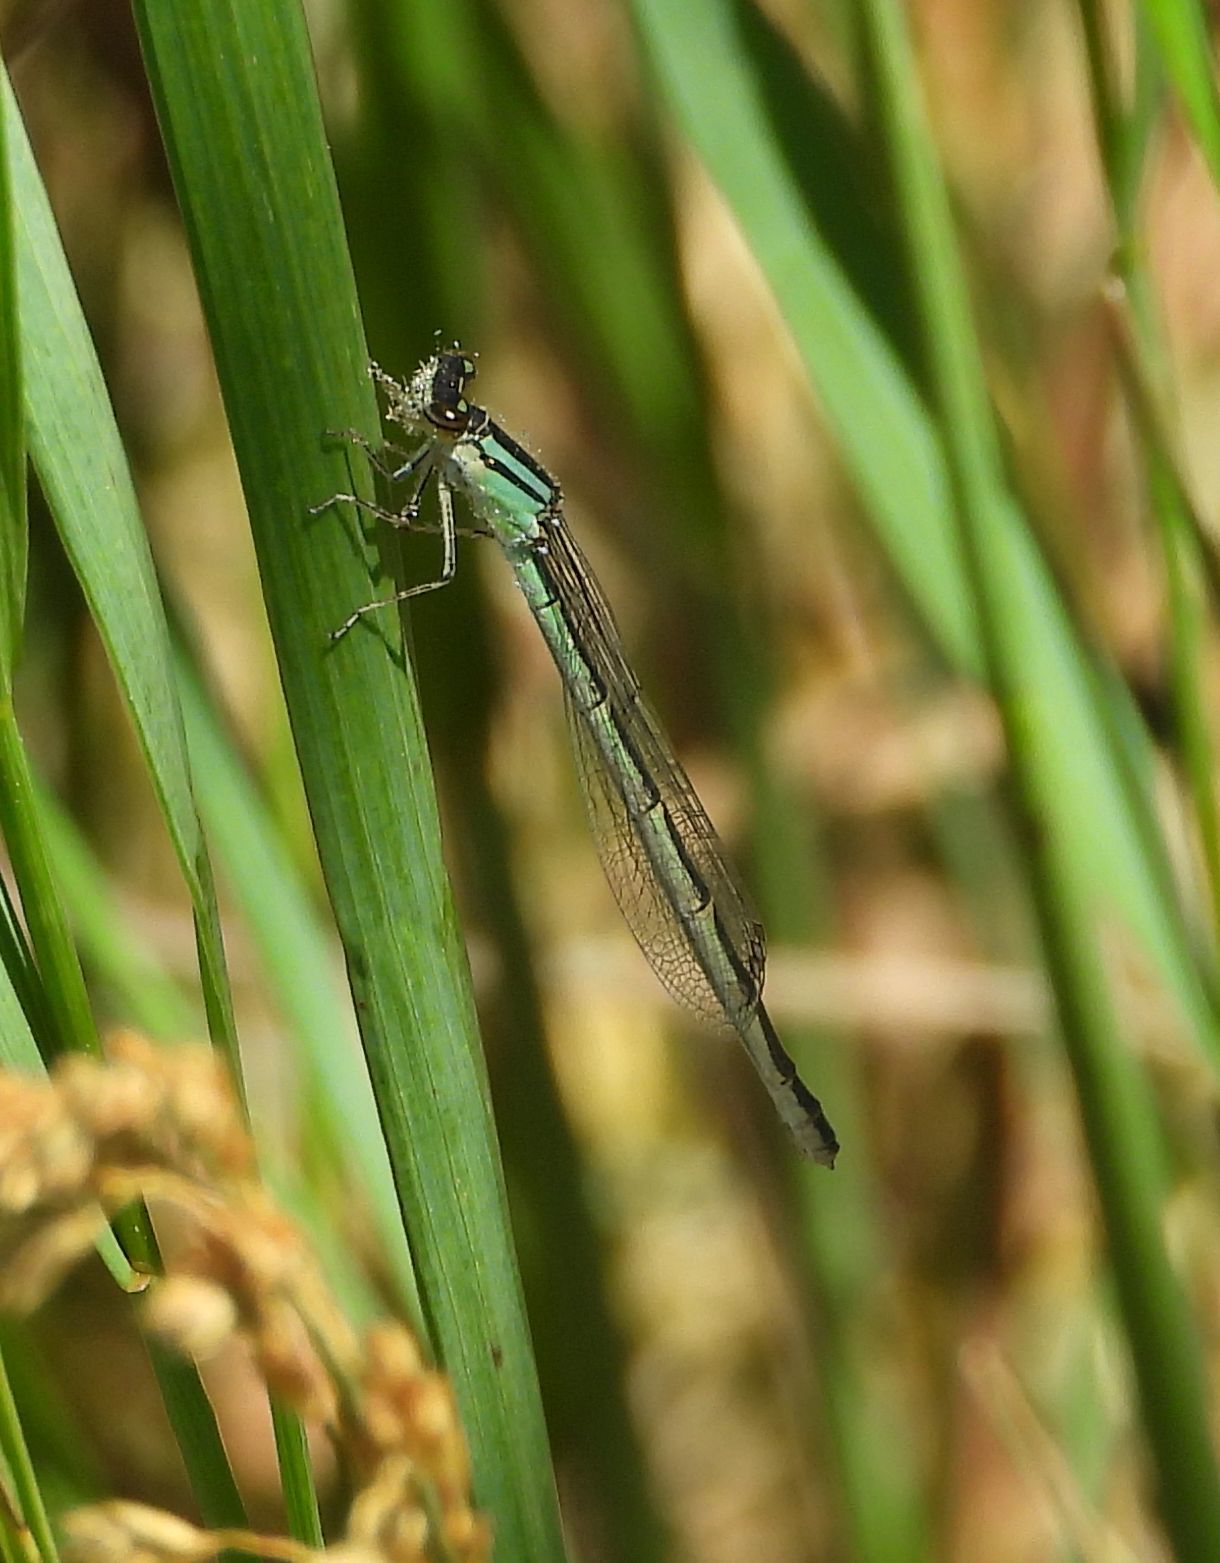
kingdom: Animalia
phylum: Arthropoda
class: Insecta
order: Odonata
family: Coenagrionidae
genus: Ischnura
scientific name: Ischnura verticalis
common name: Eastern forktail
